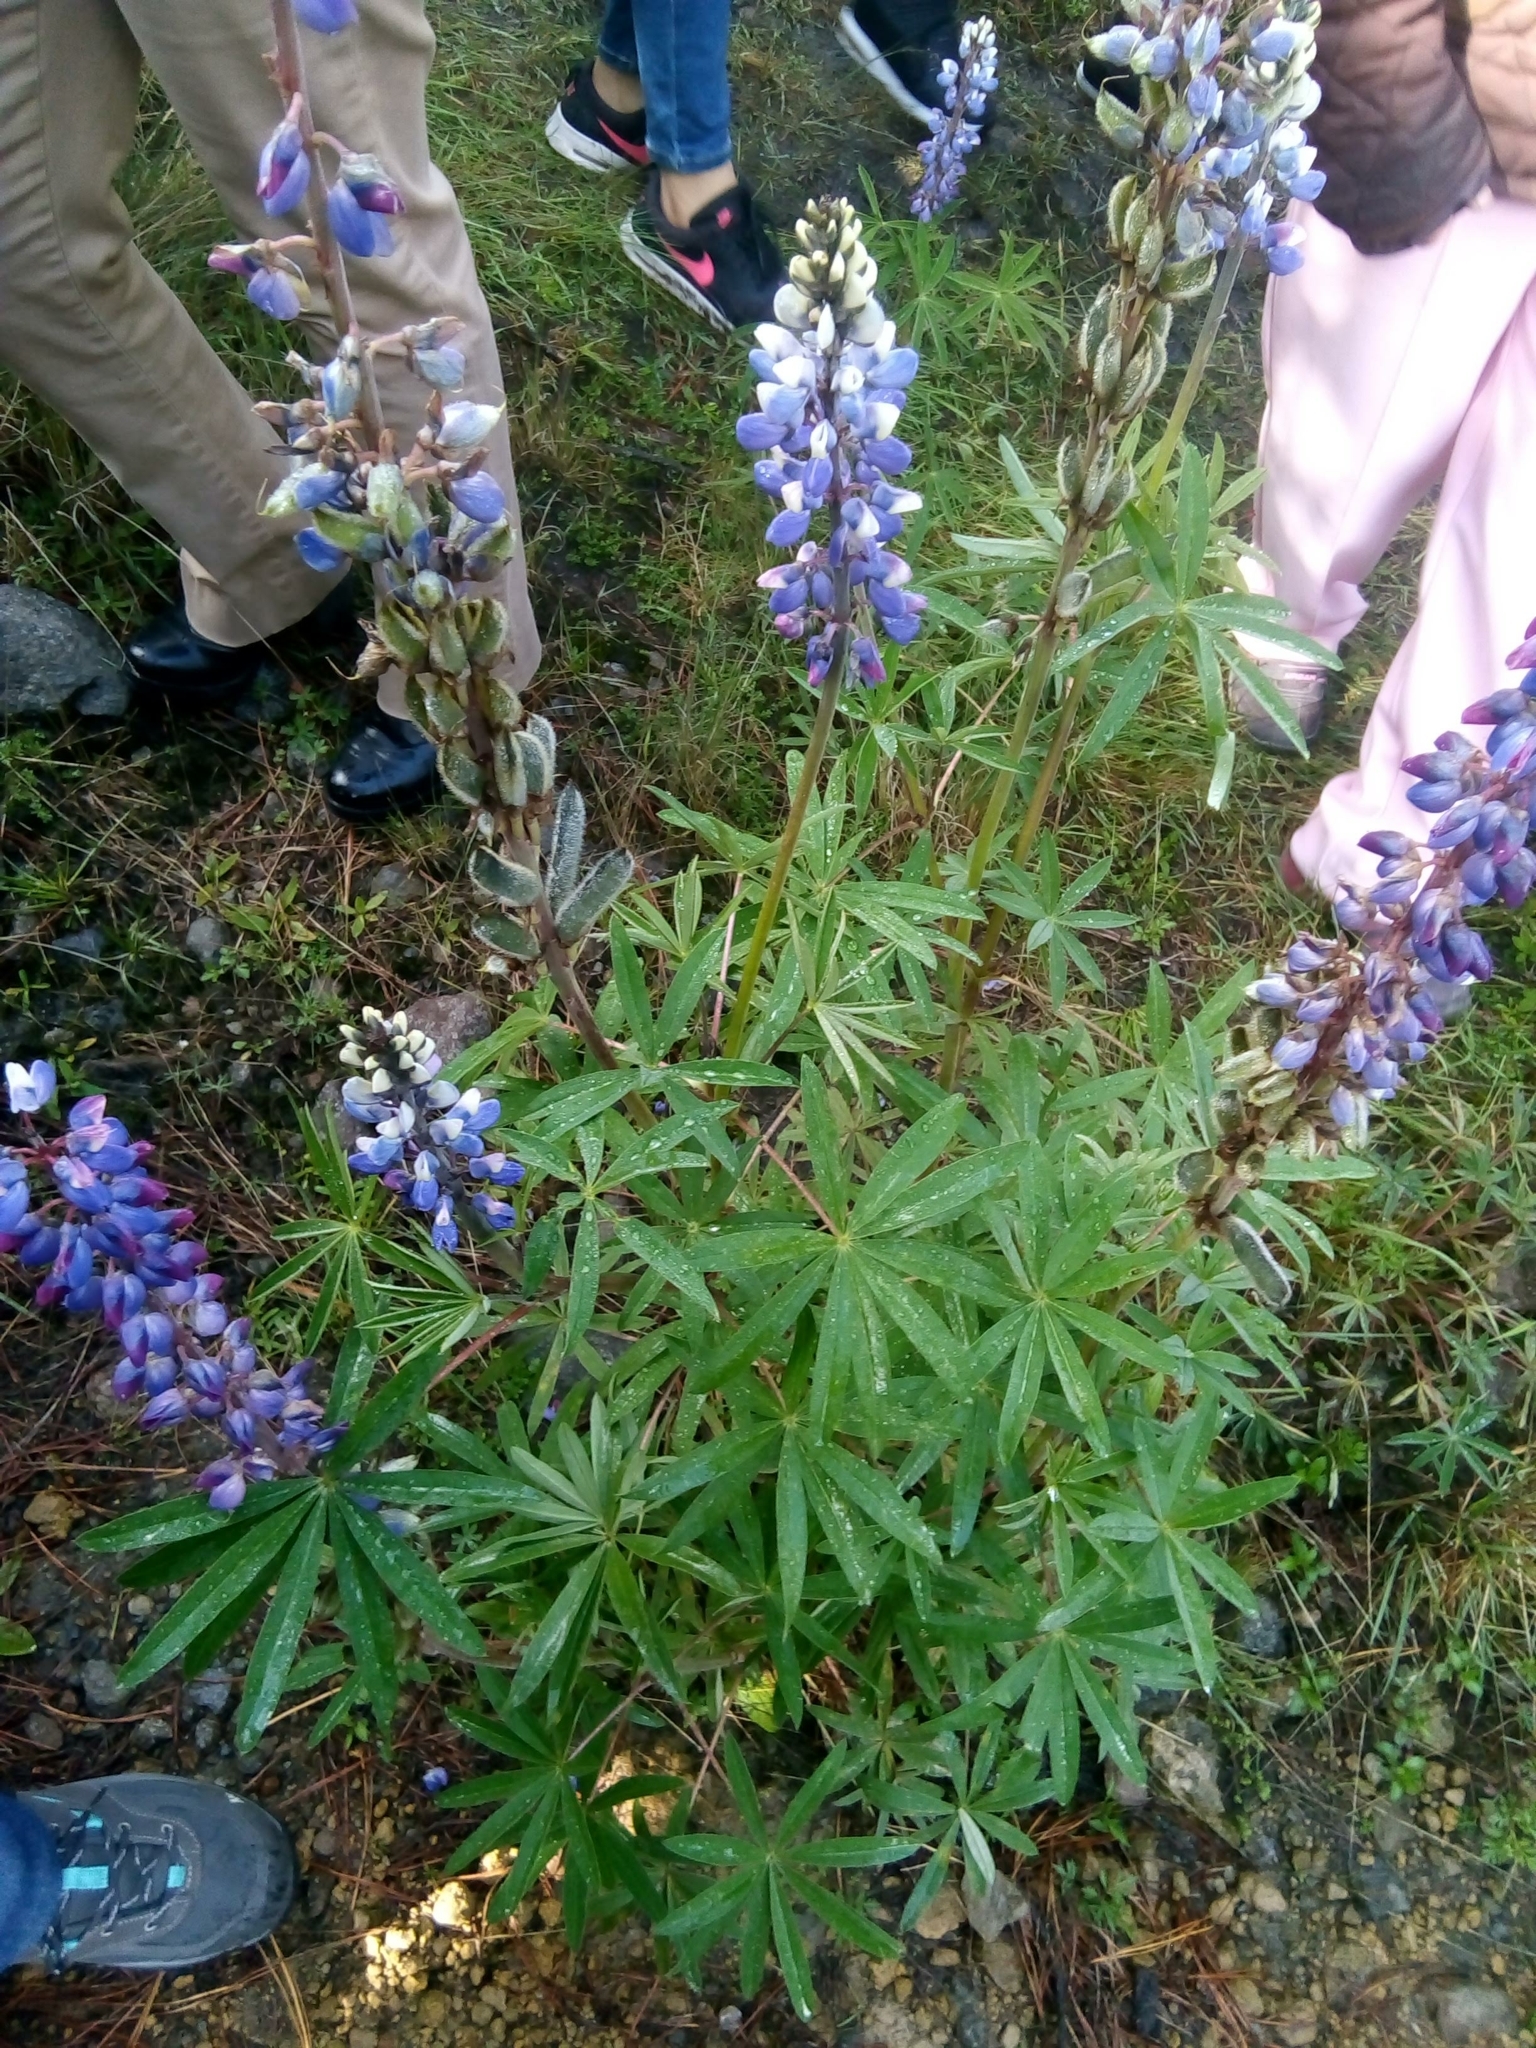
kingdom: Plantae
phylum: Tracheophyta
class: Magnoliopsida
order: Fabales
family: Fabaceae
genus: Lupinus
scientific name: Lupinus aschenbornii
